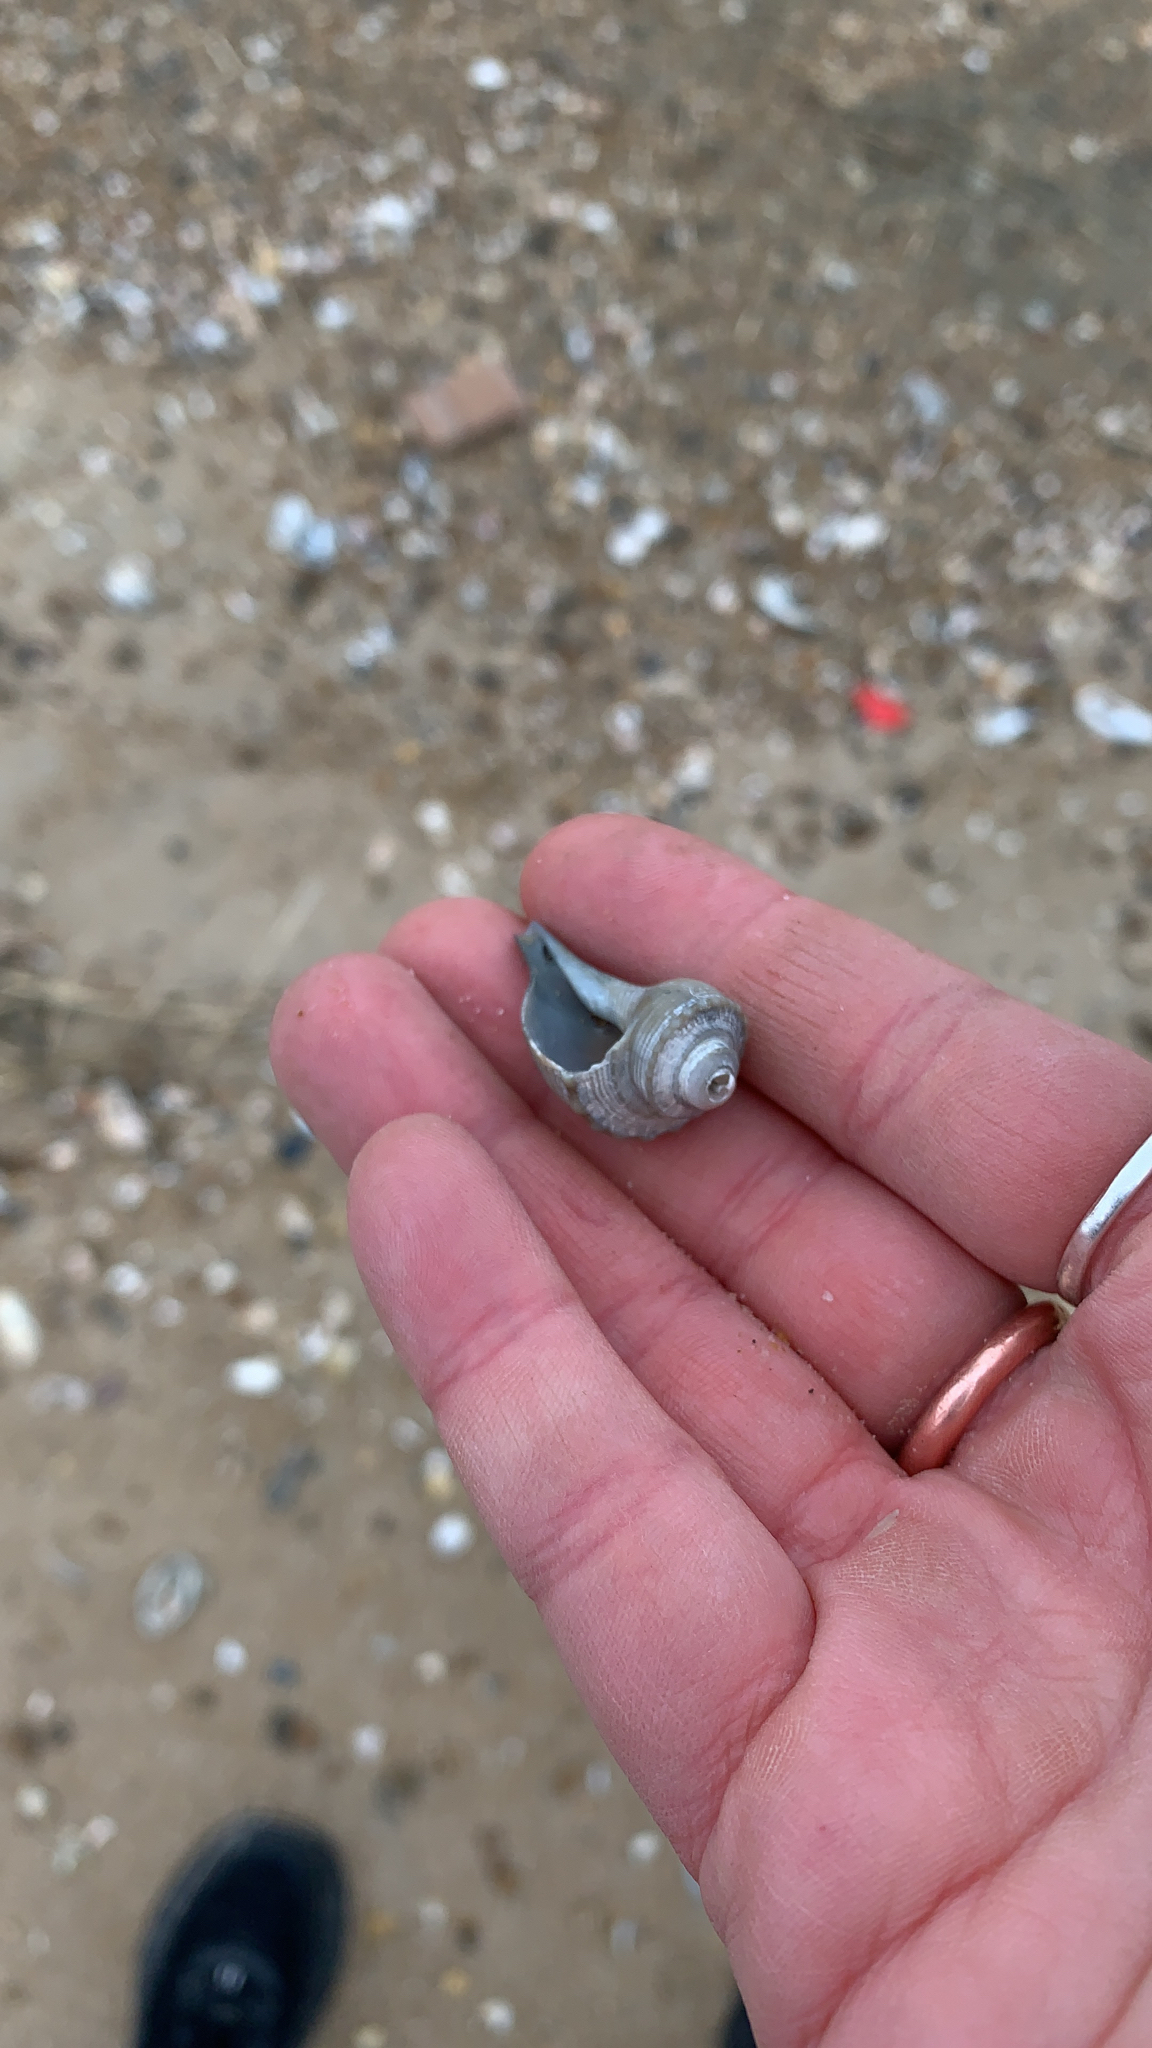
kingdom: Animalia
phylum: Mollusca
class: Gastropoda
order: Neogastropoda
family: Busyconidae
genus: Busycotypus
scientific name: Busycotypus canaliculatus
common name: Channeled whelk
